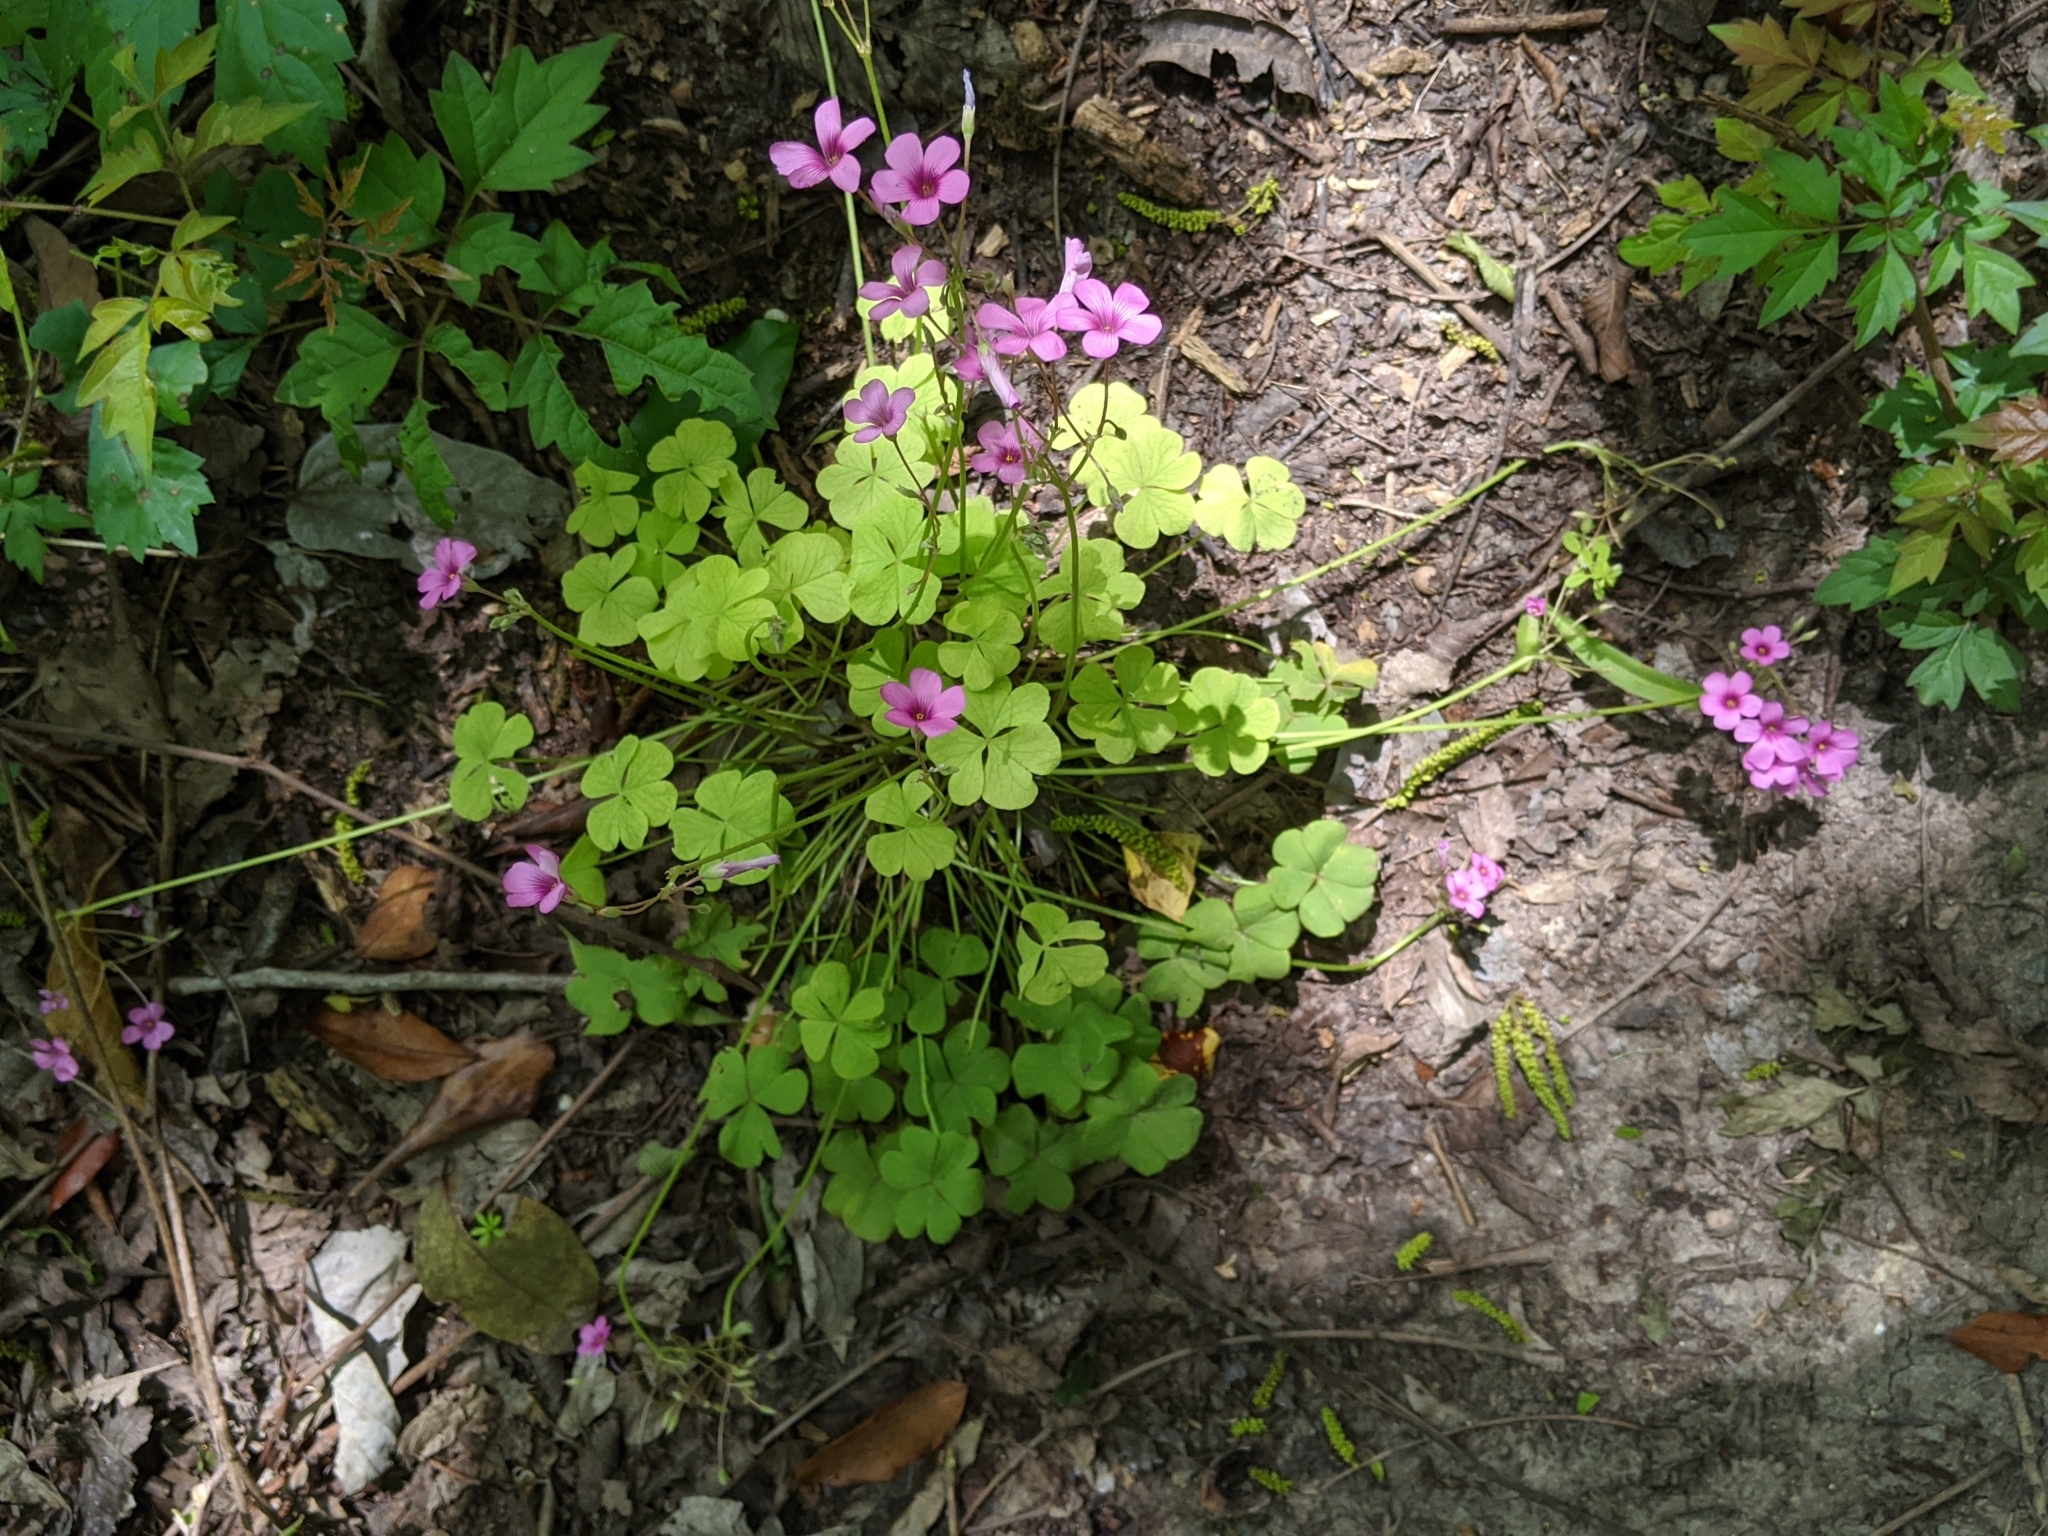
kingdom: Plantae
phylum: Tracheophyta
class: Magnoliopsida
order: Oxalidales
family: Oxalidaceae
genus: Oxalis
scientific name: Oxalis articulata
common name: Pink-sorrel
